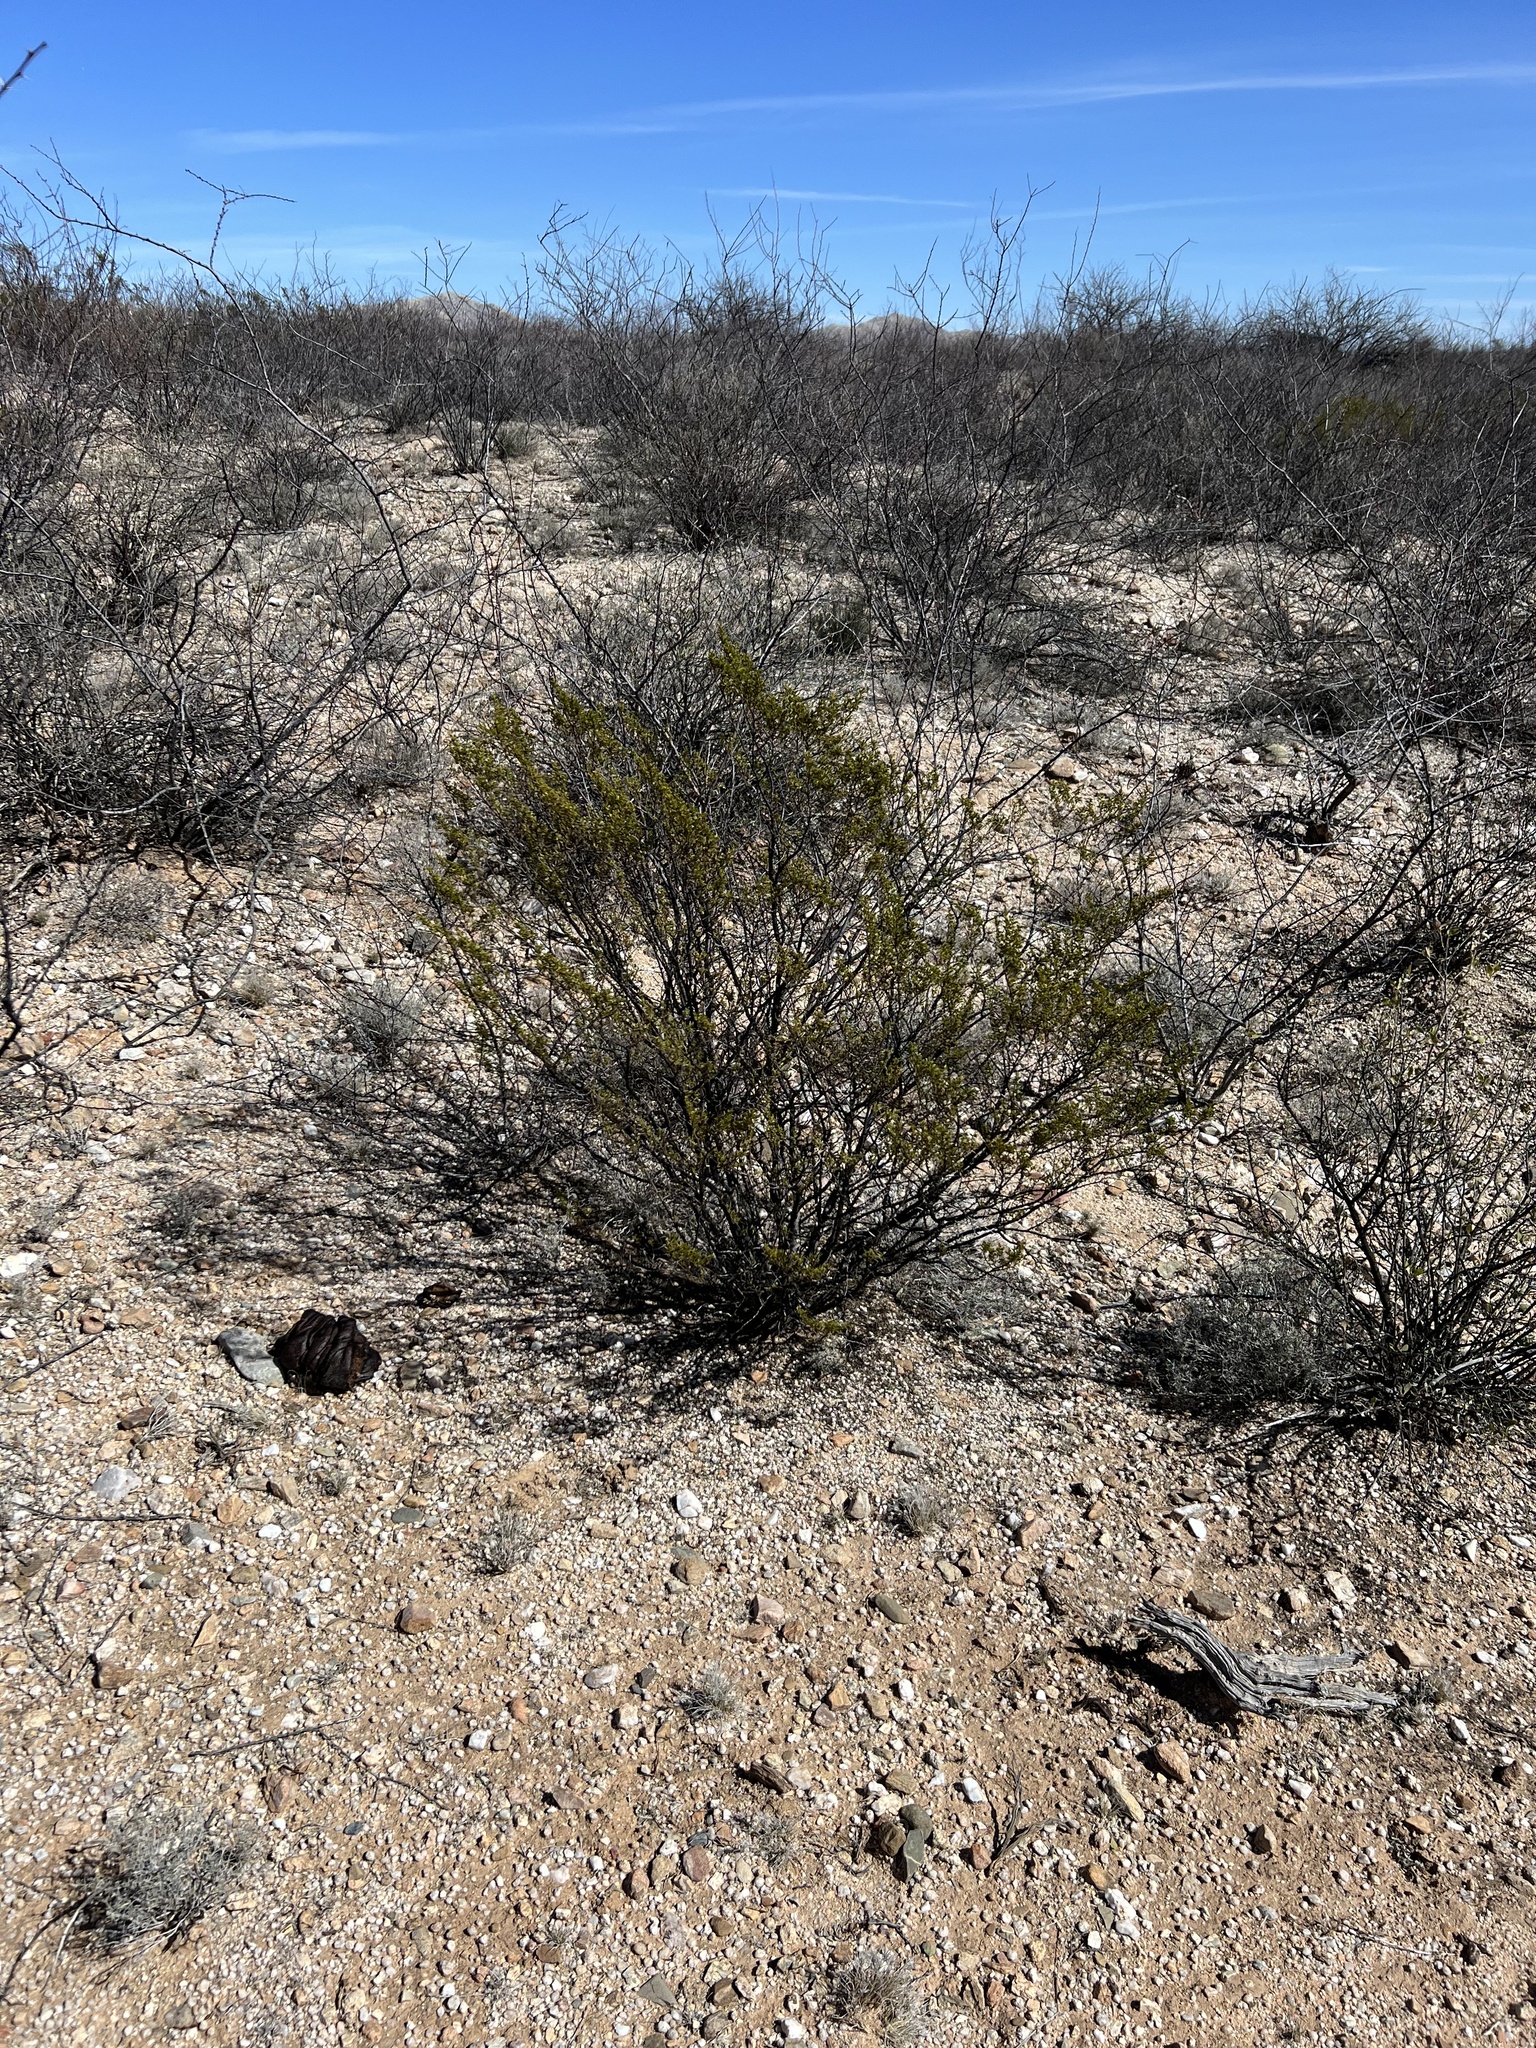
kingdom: Plantae
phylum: Tracheophyta
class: Magnoliopsida
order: Zygophyllales
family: Zygophyllaceae
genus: Larrea
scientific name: Larrea tridentata
